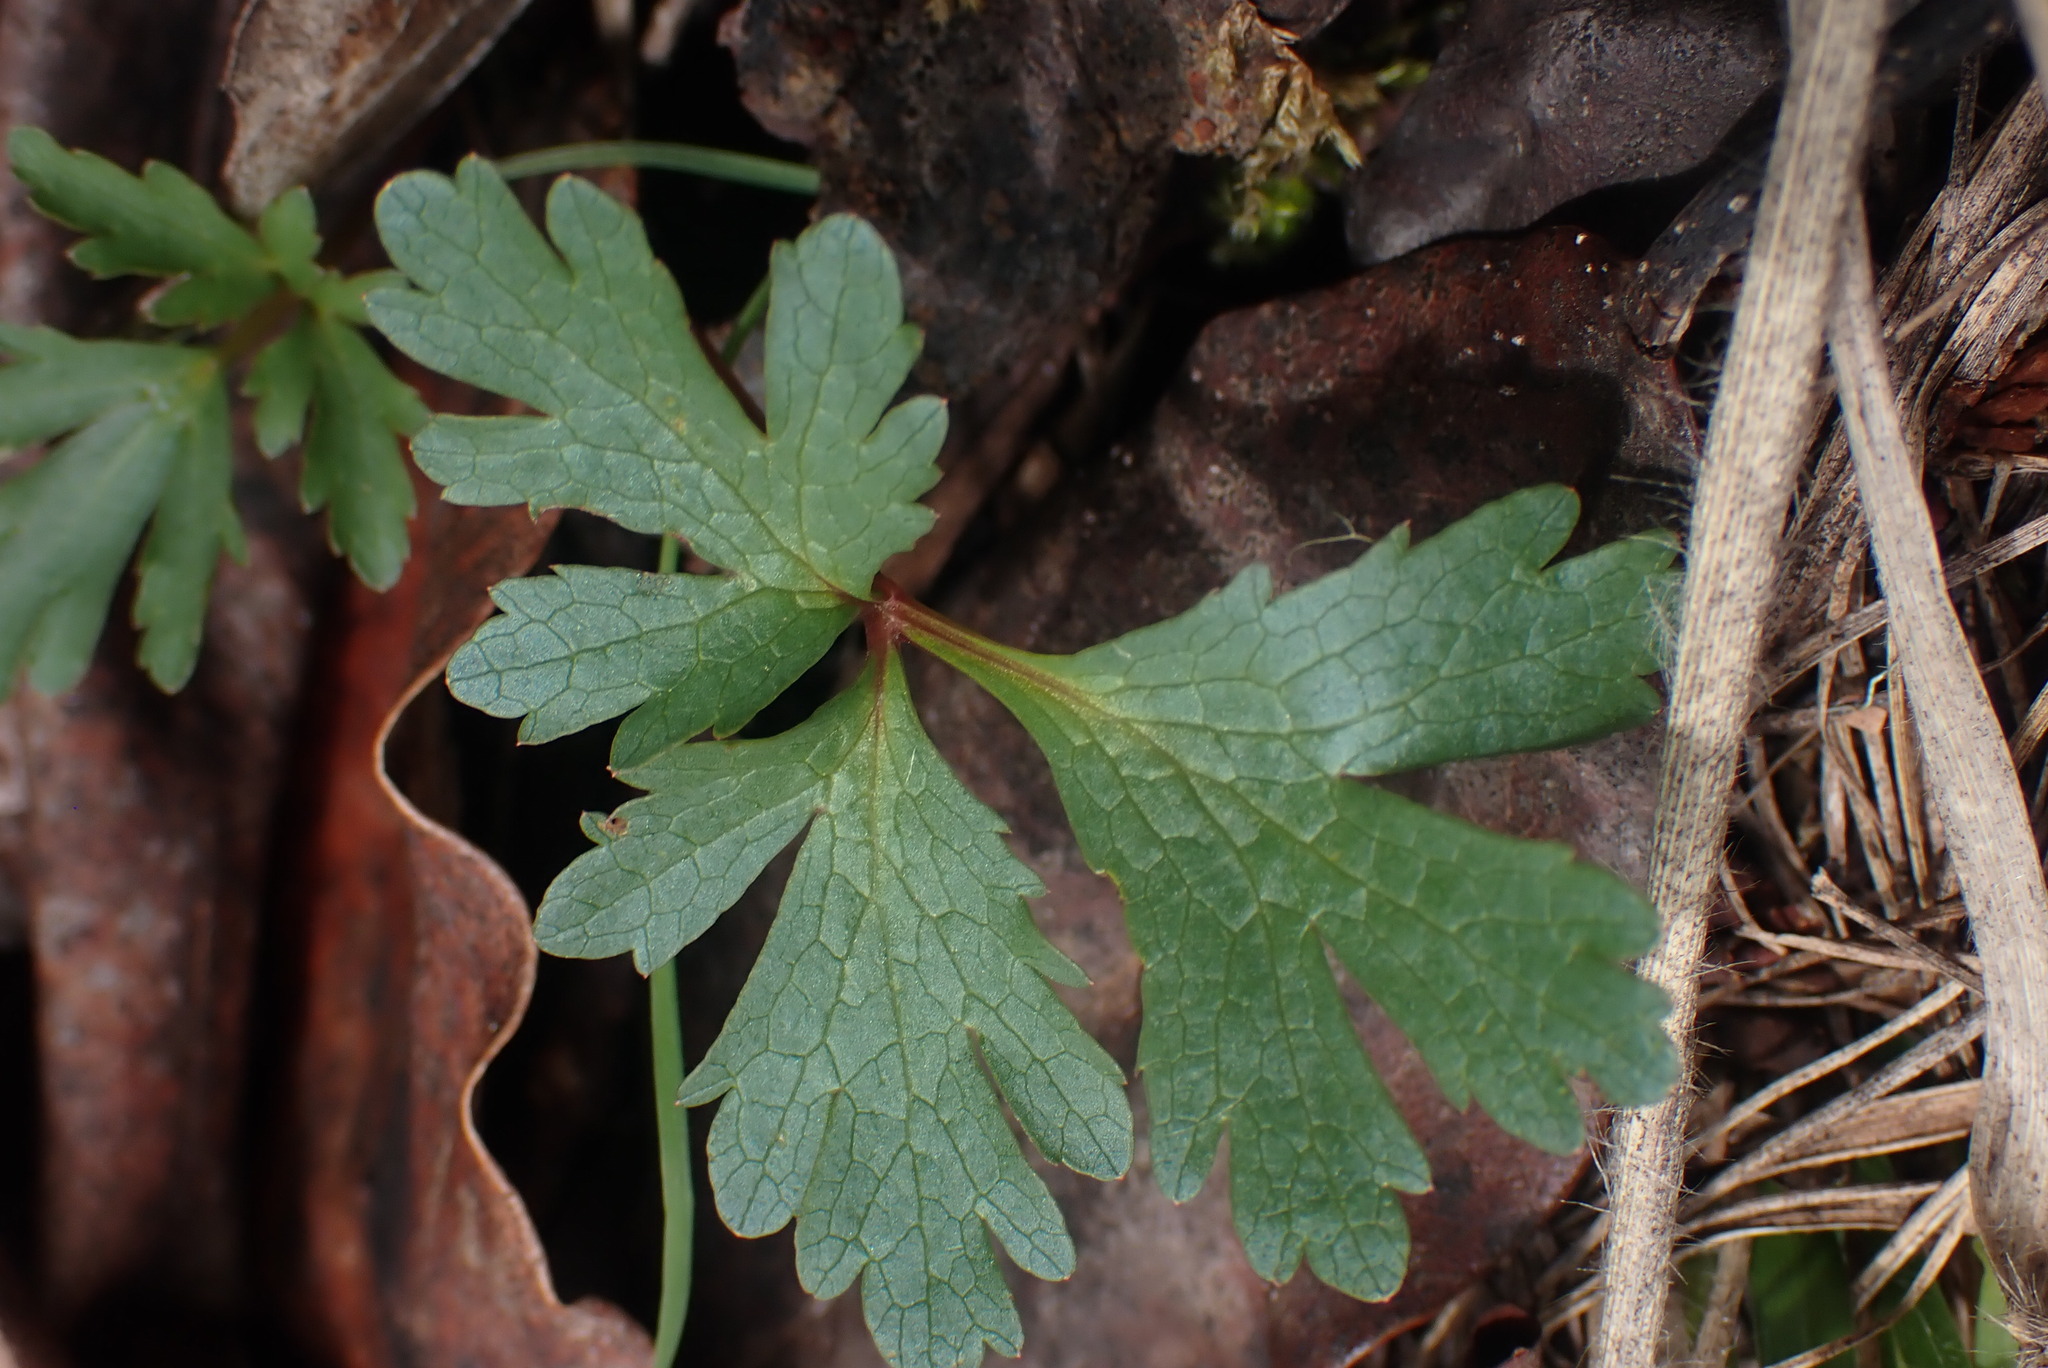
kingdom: Plantae
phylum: Tracheophyta
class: Magnoliopsida
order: Apiales
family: Apiaceae
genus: Sanicula
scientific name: Sanicula graveolens
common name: Sierra sanicle
